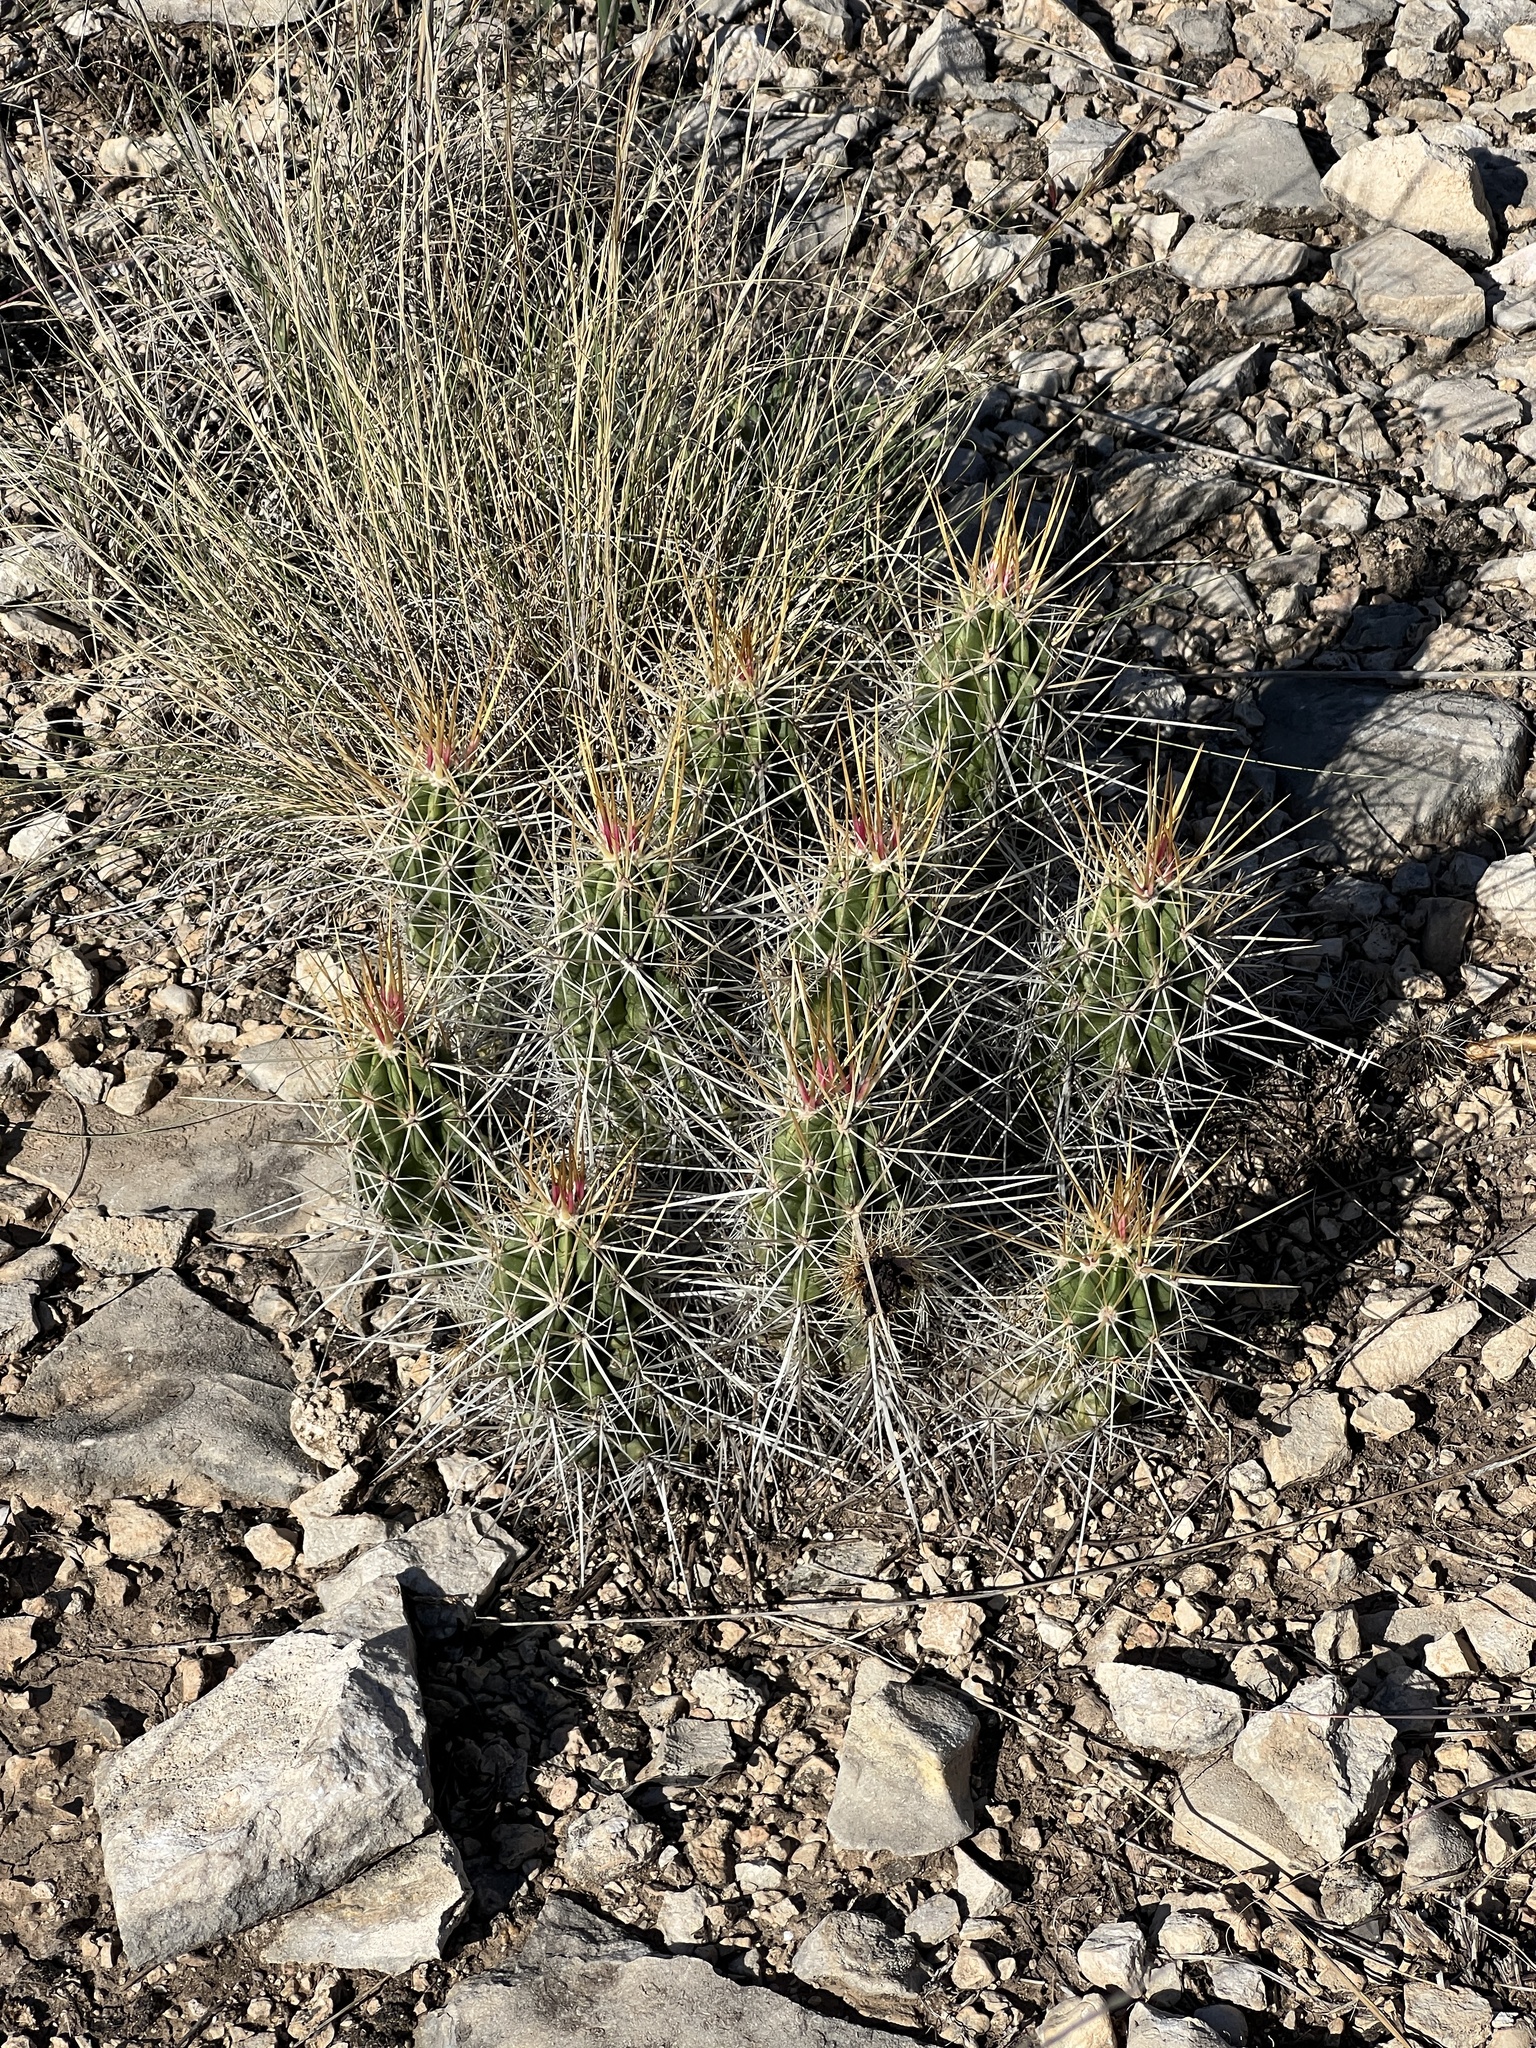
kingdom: Plantae
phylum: Tracheophyta
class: Magnoliopsida
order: Caryophyllales
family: Cactaceae
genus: Echinocereus
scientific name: Echinocereus enneacanthus
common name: Pitaya
